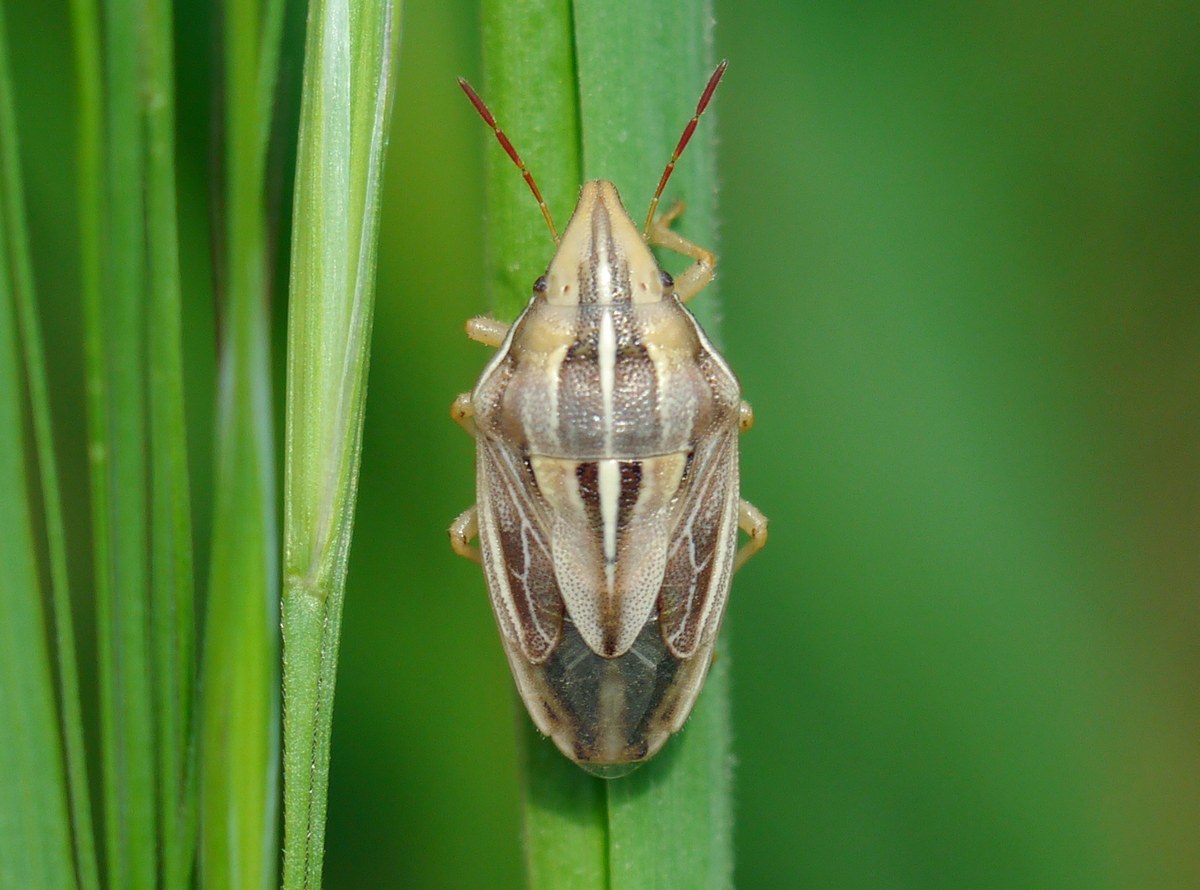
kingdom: Animalia
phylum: Arthropoda
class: Insecta
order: Hemiptera
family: Pentatomidae
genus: Aelia
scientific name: Aelia rostrata
